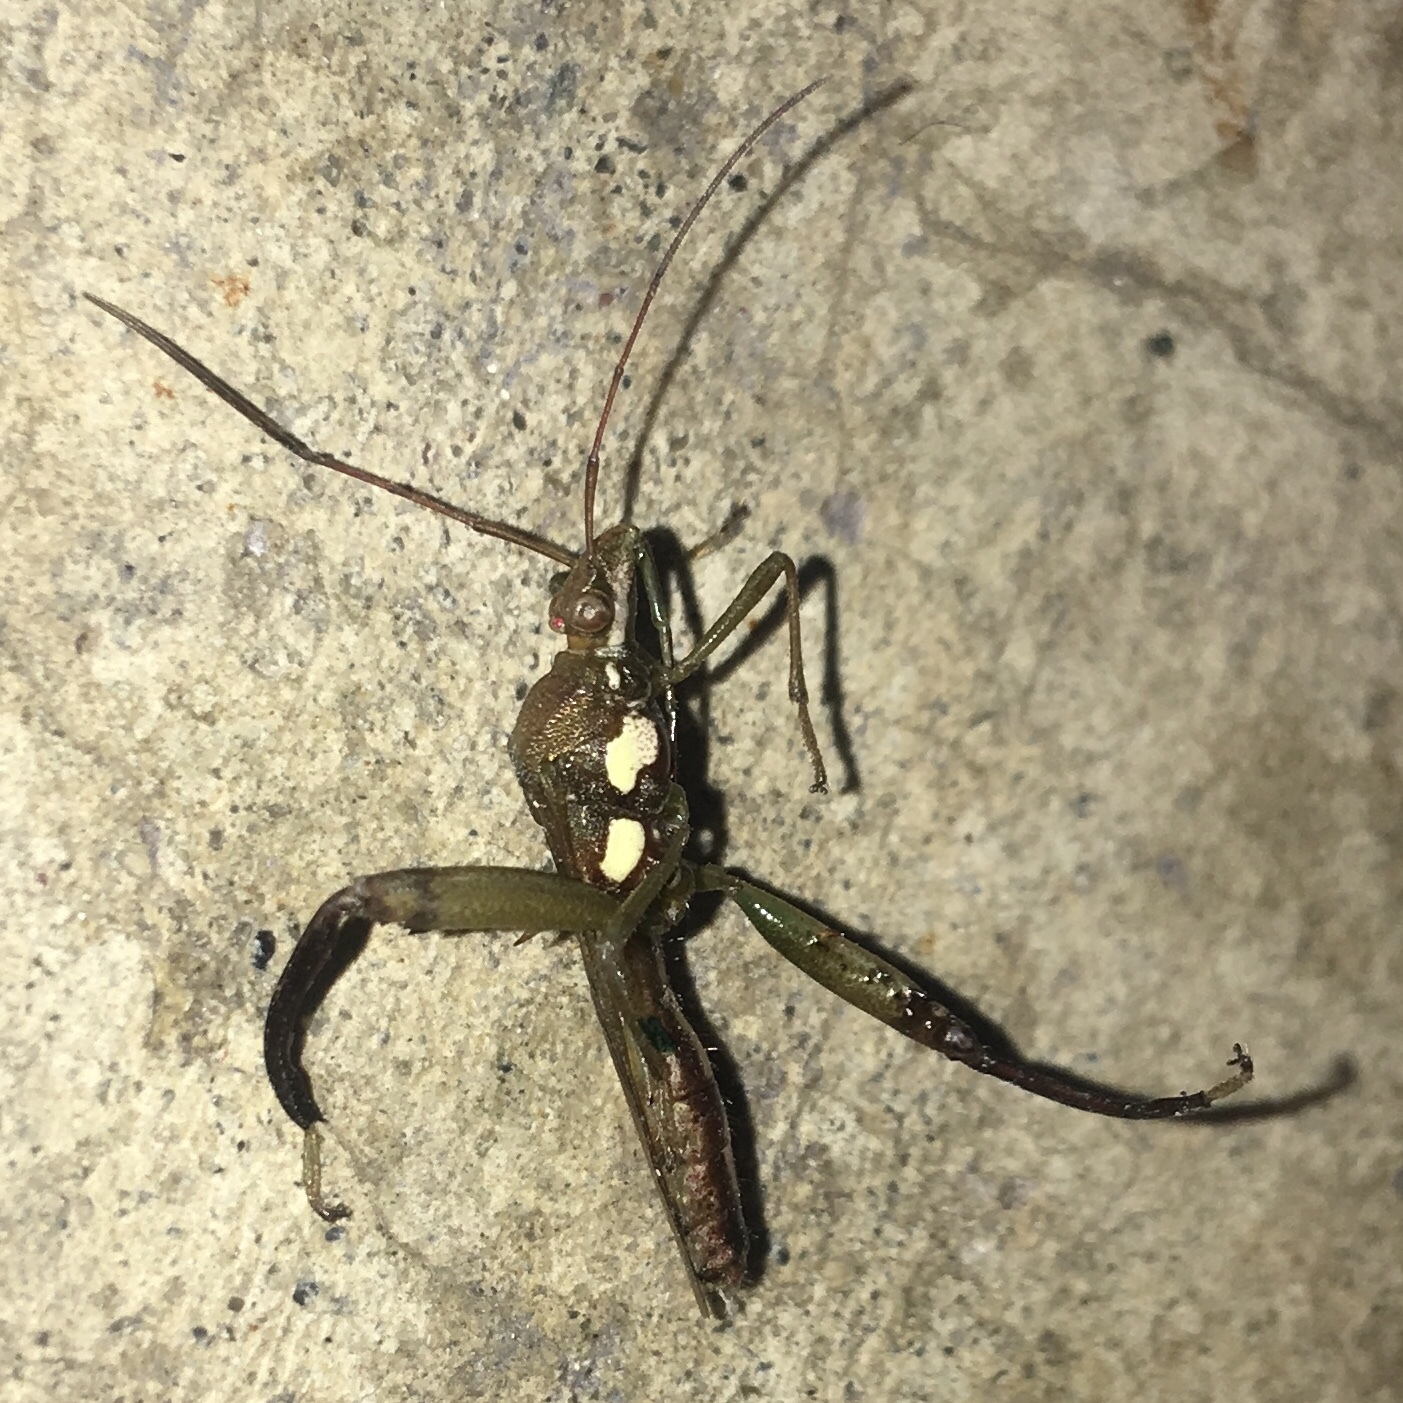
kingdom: Animalia
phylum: Arthropoda
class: Insecta
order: Hemiptera
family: Alydidae
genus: Hyalymenus
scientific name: Hyalymenus tarsatus
